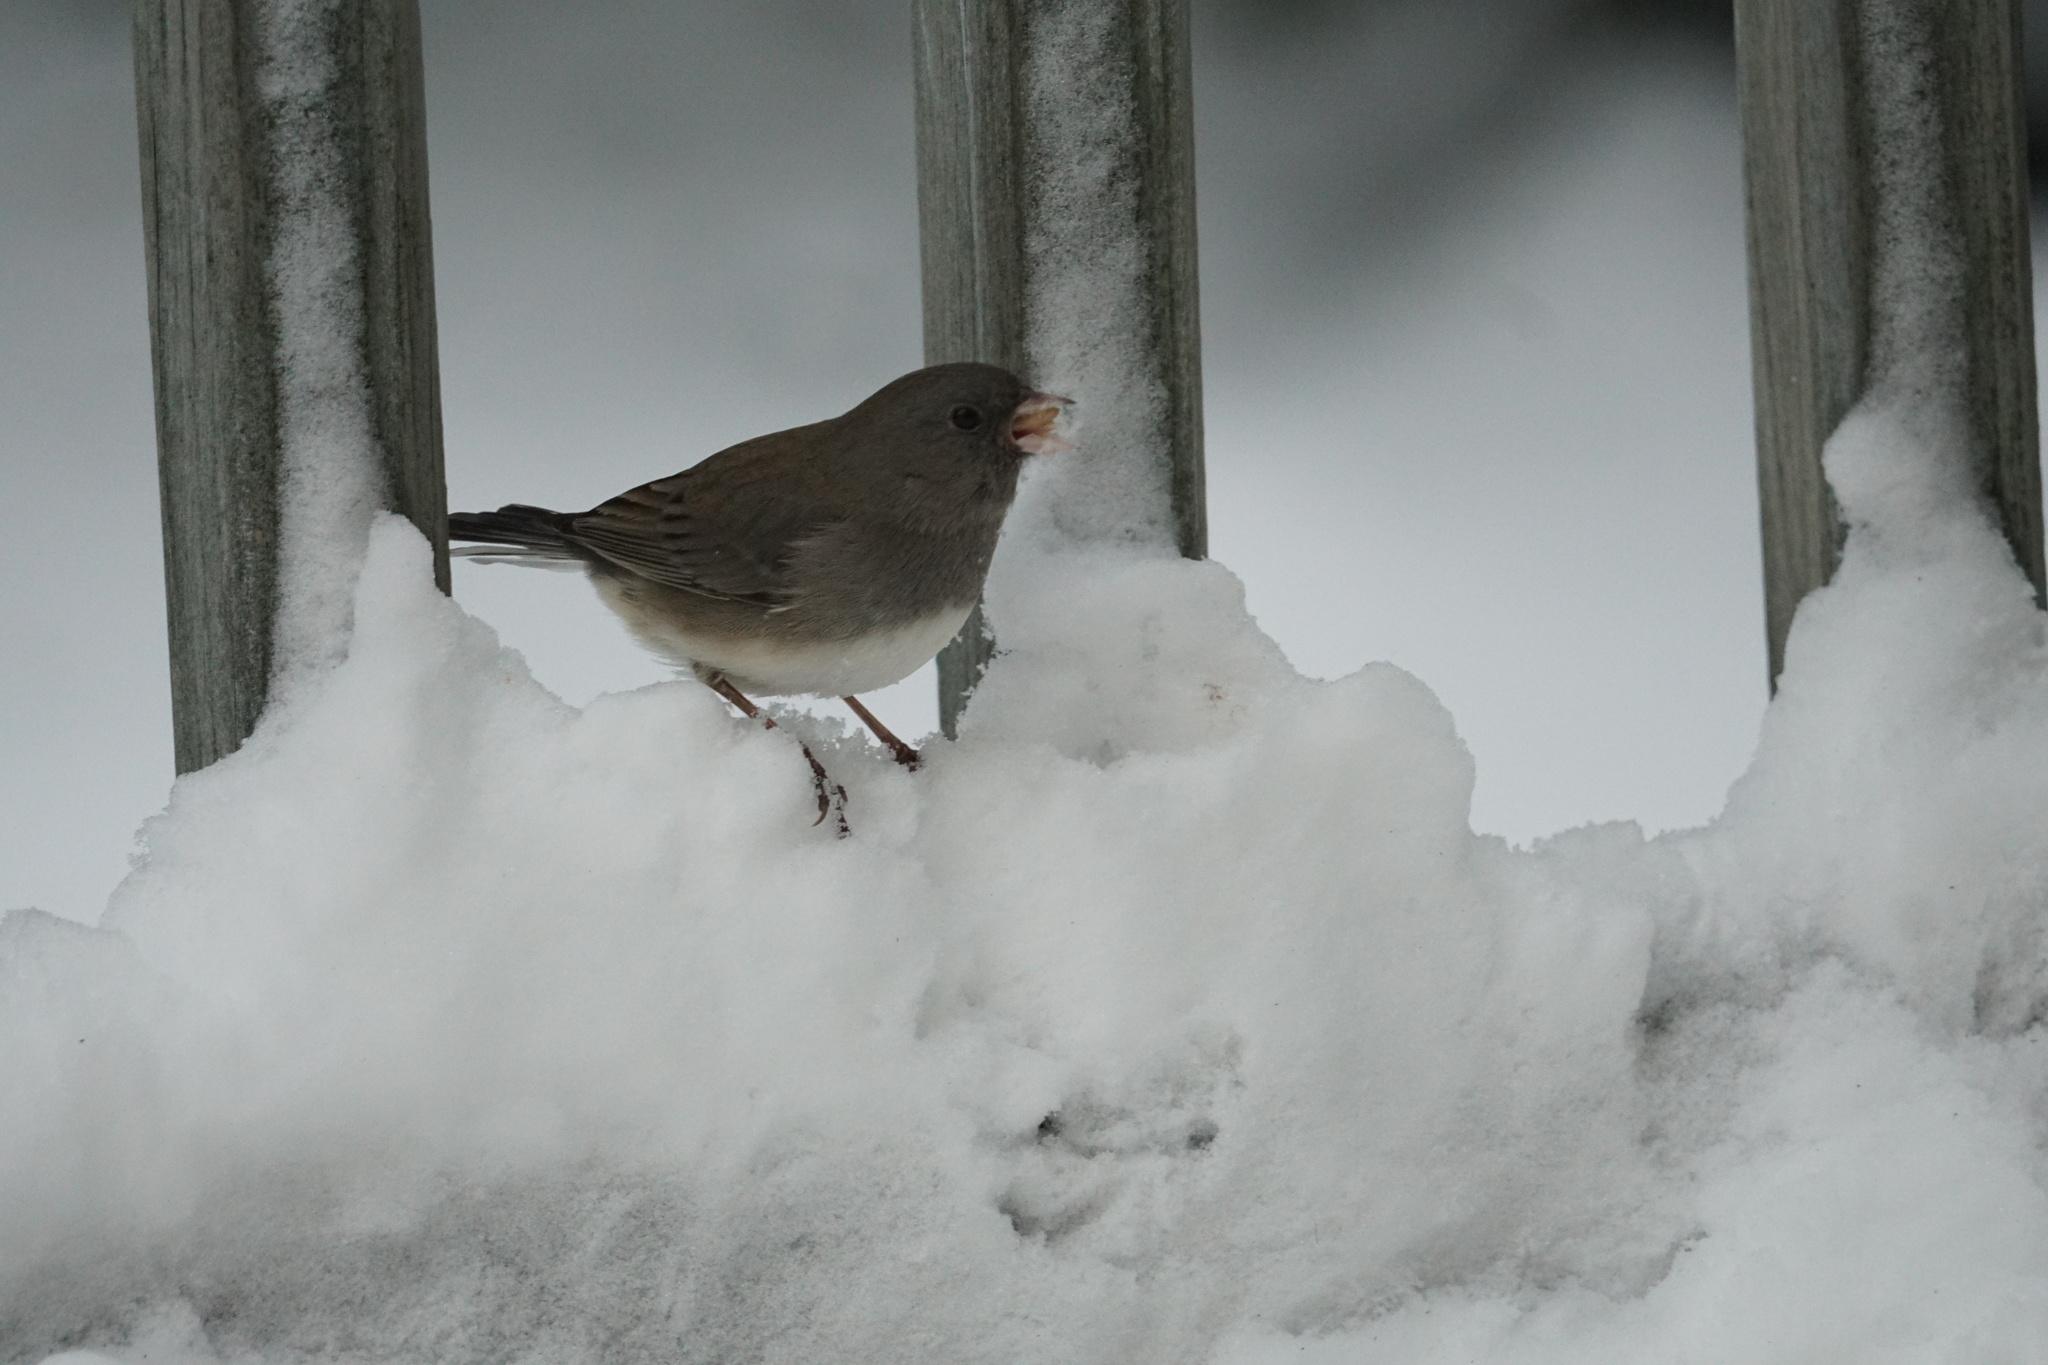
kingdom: Animalia
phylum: Chordata
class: Aves
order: Passeriformes
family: Passerellidae
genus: Junco
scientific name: Junco hyemalis
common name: Dark-eyed junco
